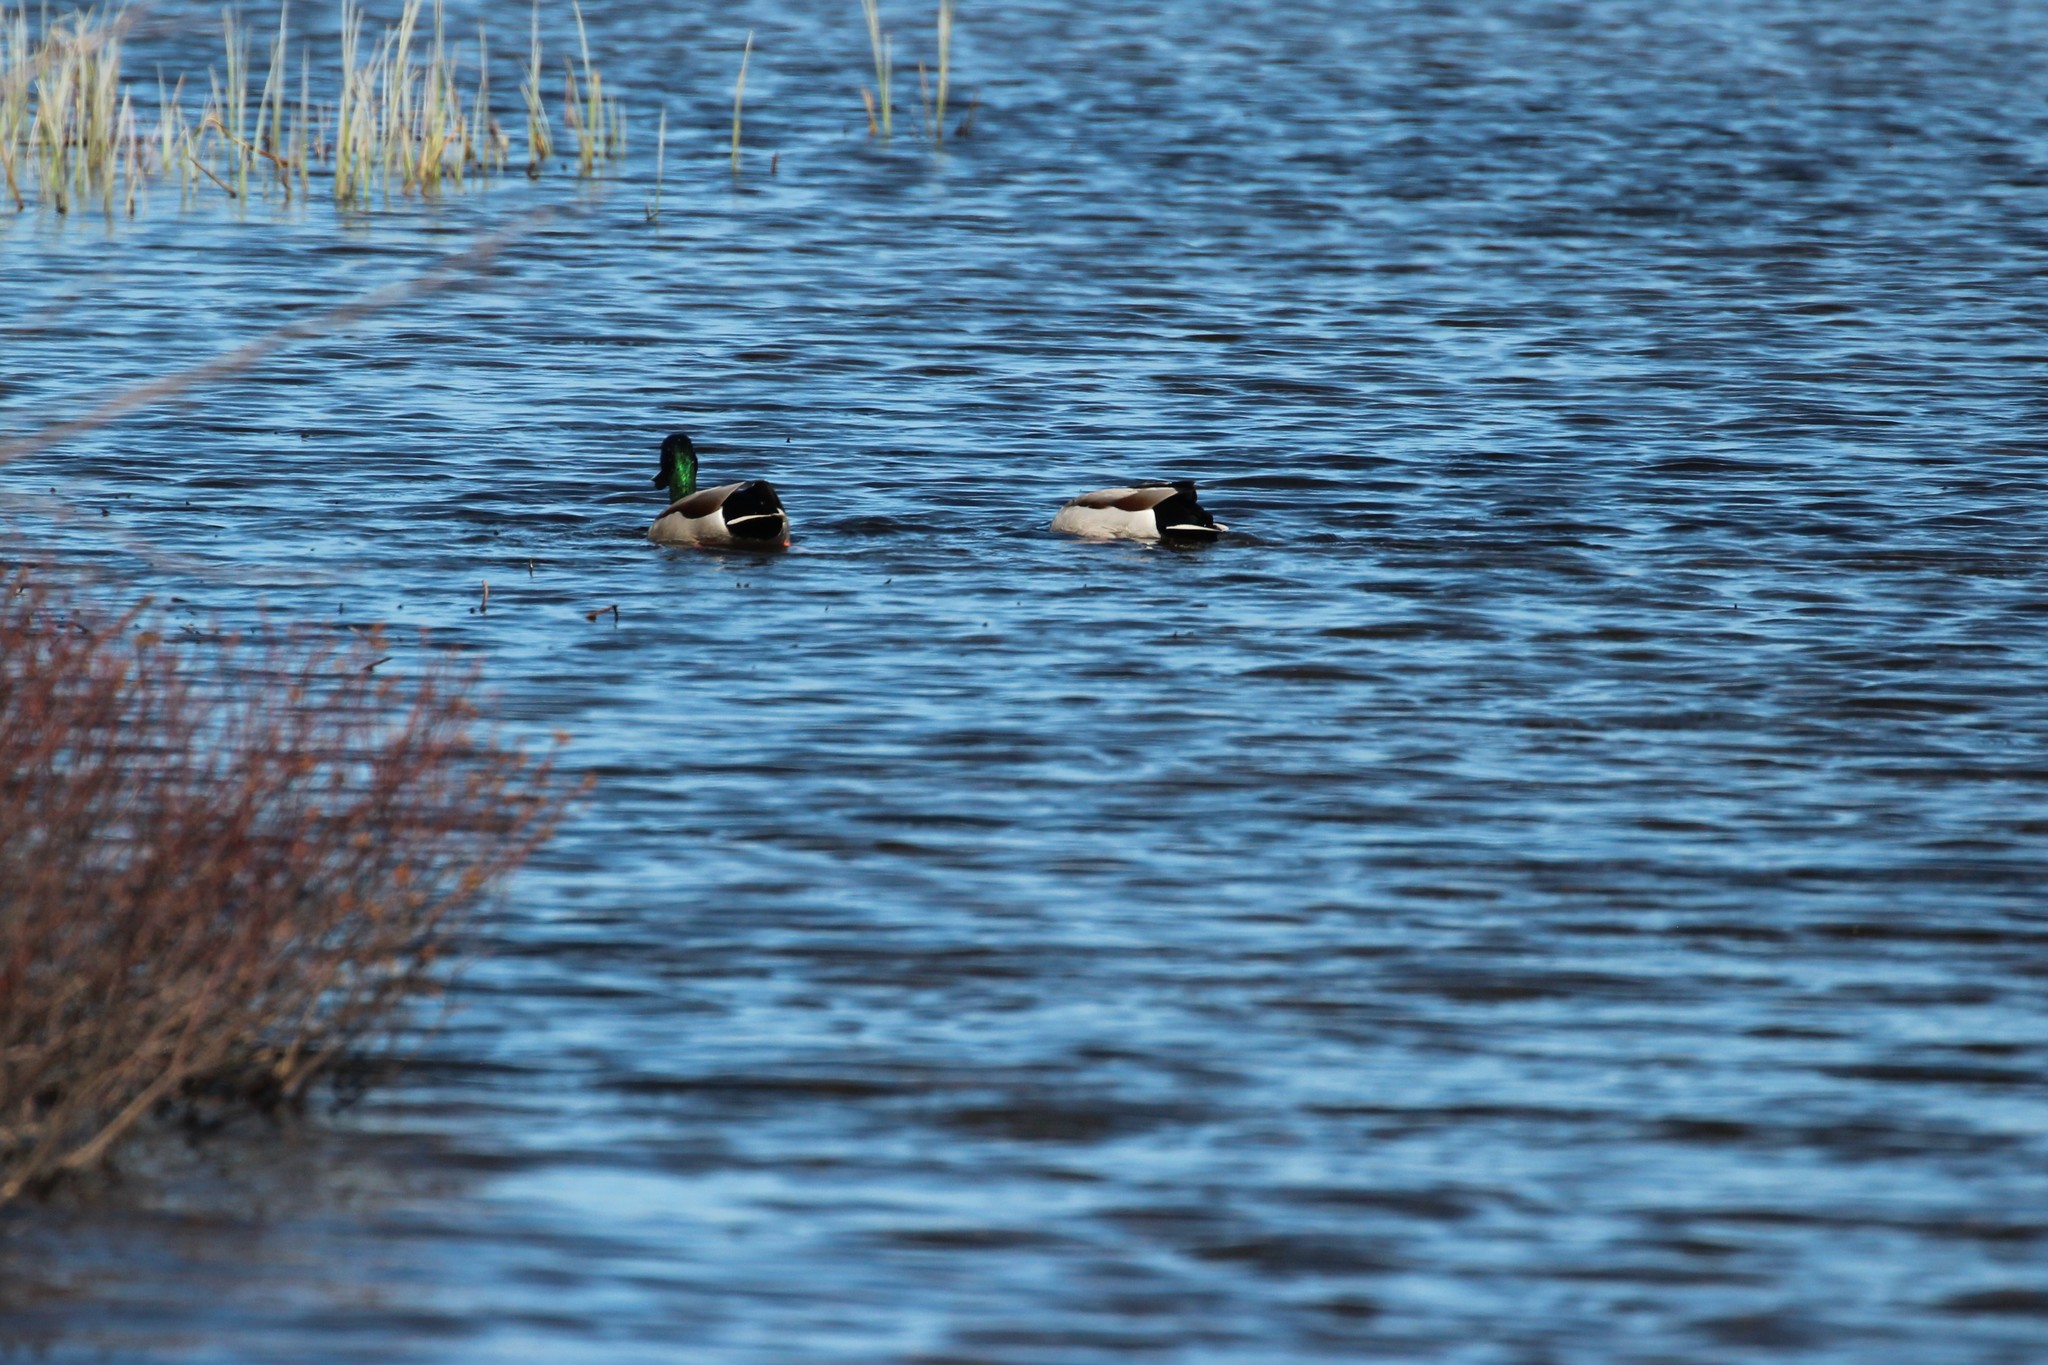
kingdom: Animalia
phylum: Chordata
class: Aves
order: Anseriformes
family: Anatidae
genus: Anas
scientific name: Anas platyrhynchos
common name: Mallard
